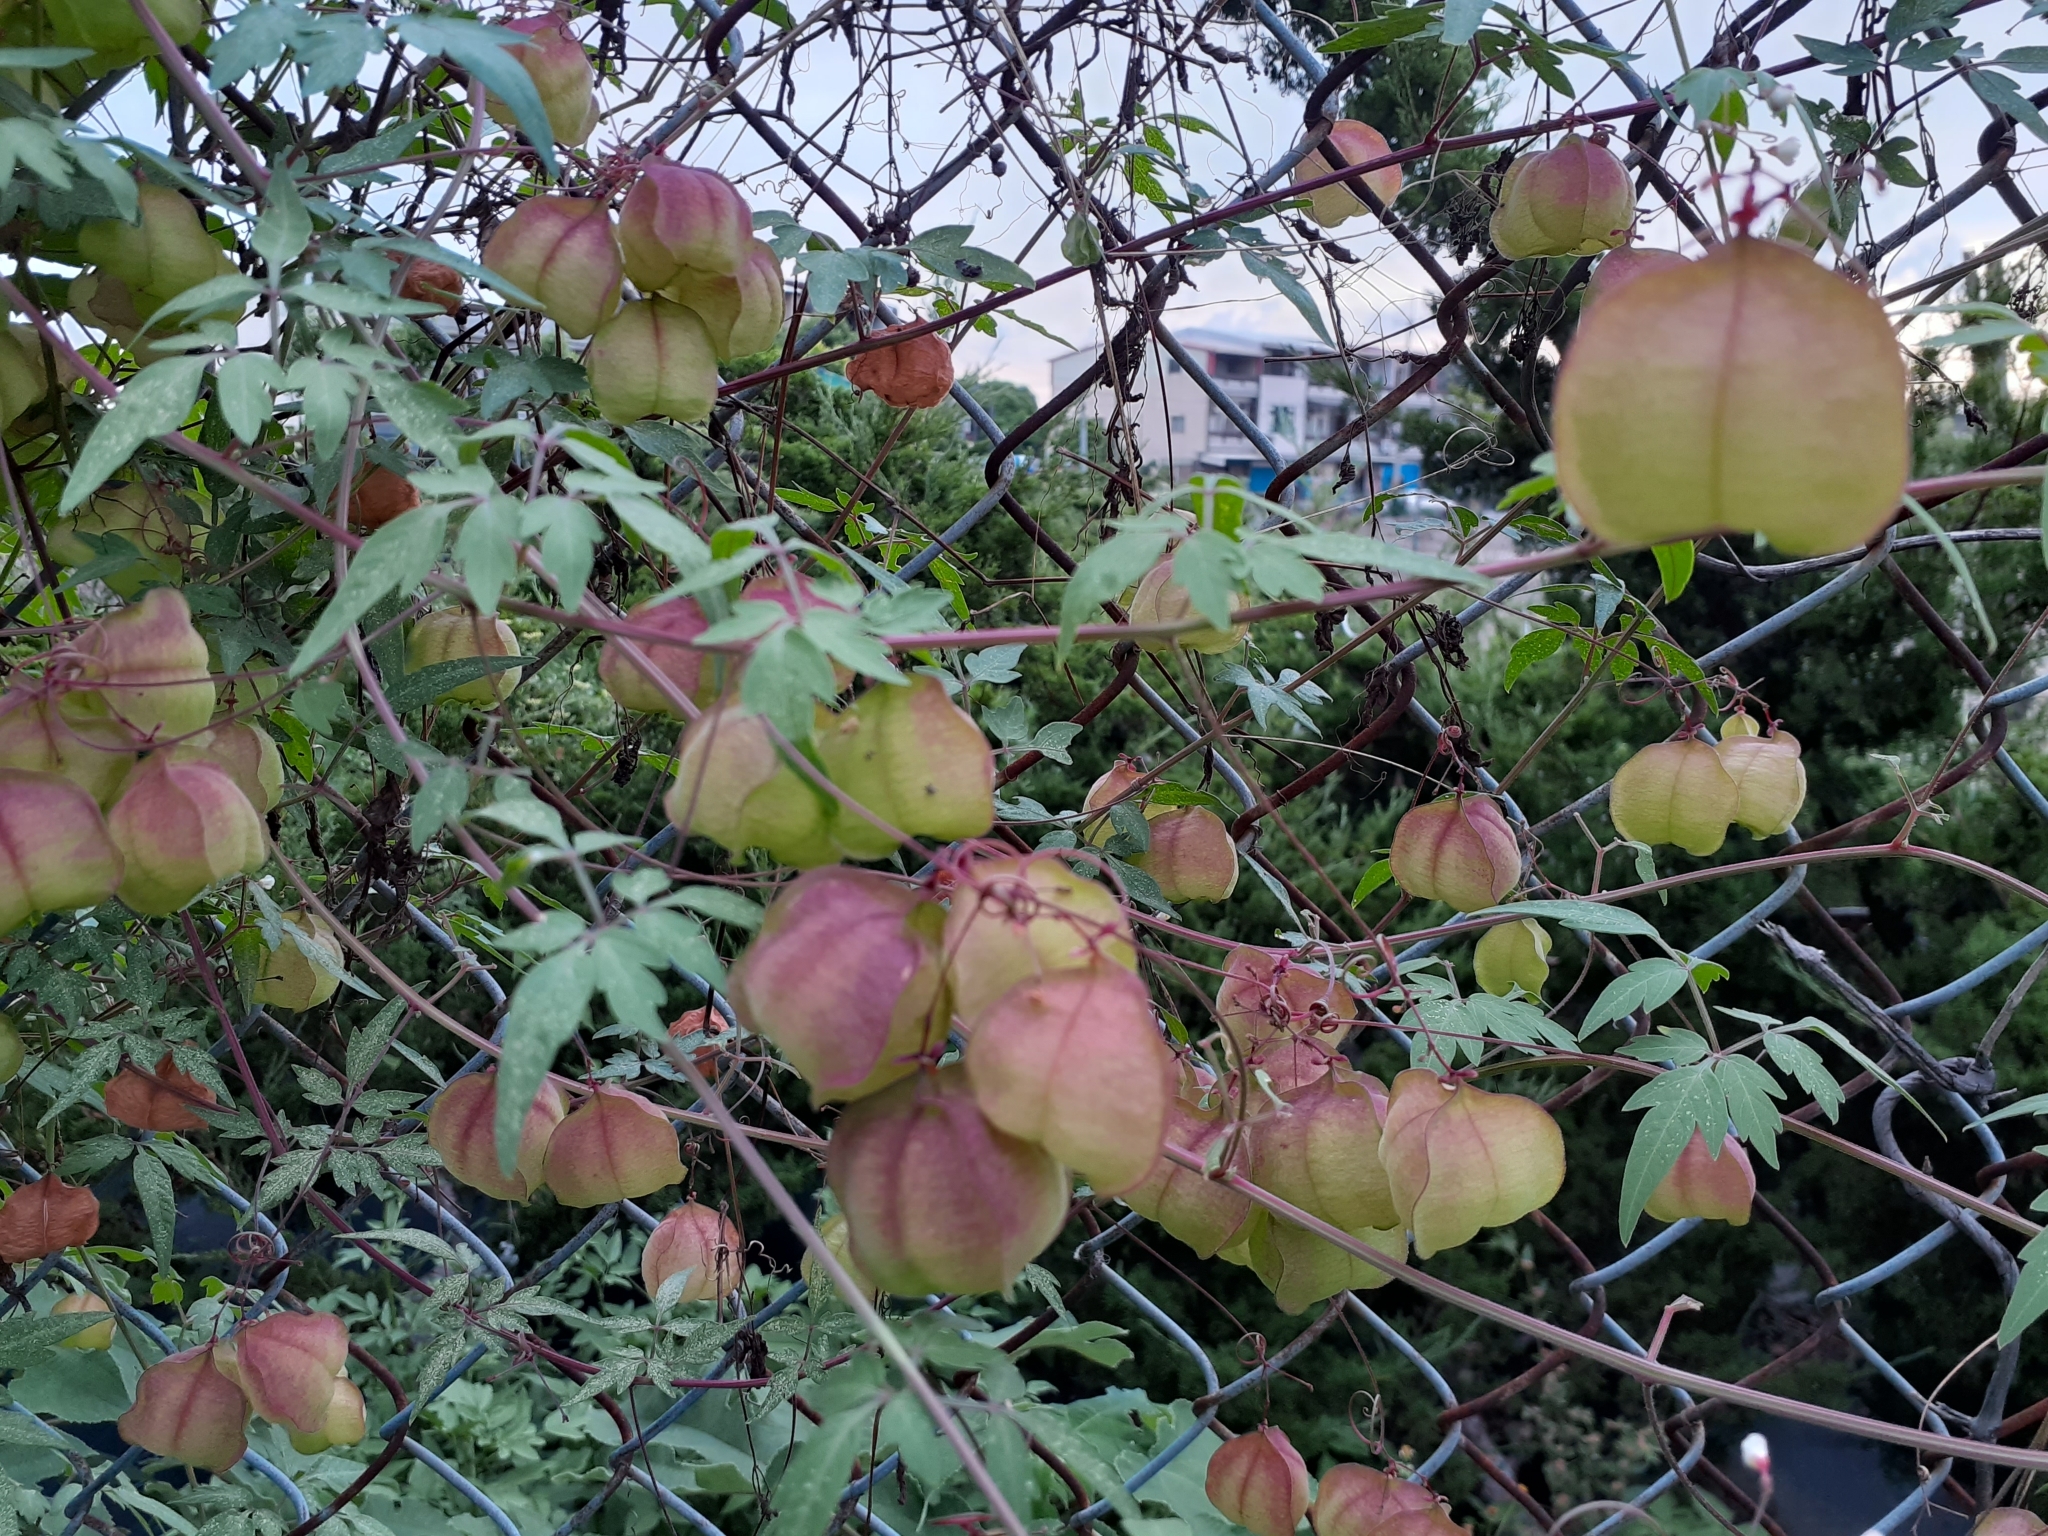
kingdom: Plantae
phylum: Tracheophyta
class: Magnoliopsida
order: Sapindales
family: Sapindaceae
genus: Cardiospermum
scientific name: Cardiospermum halicacabum
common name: Balloon vine
